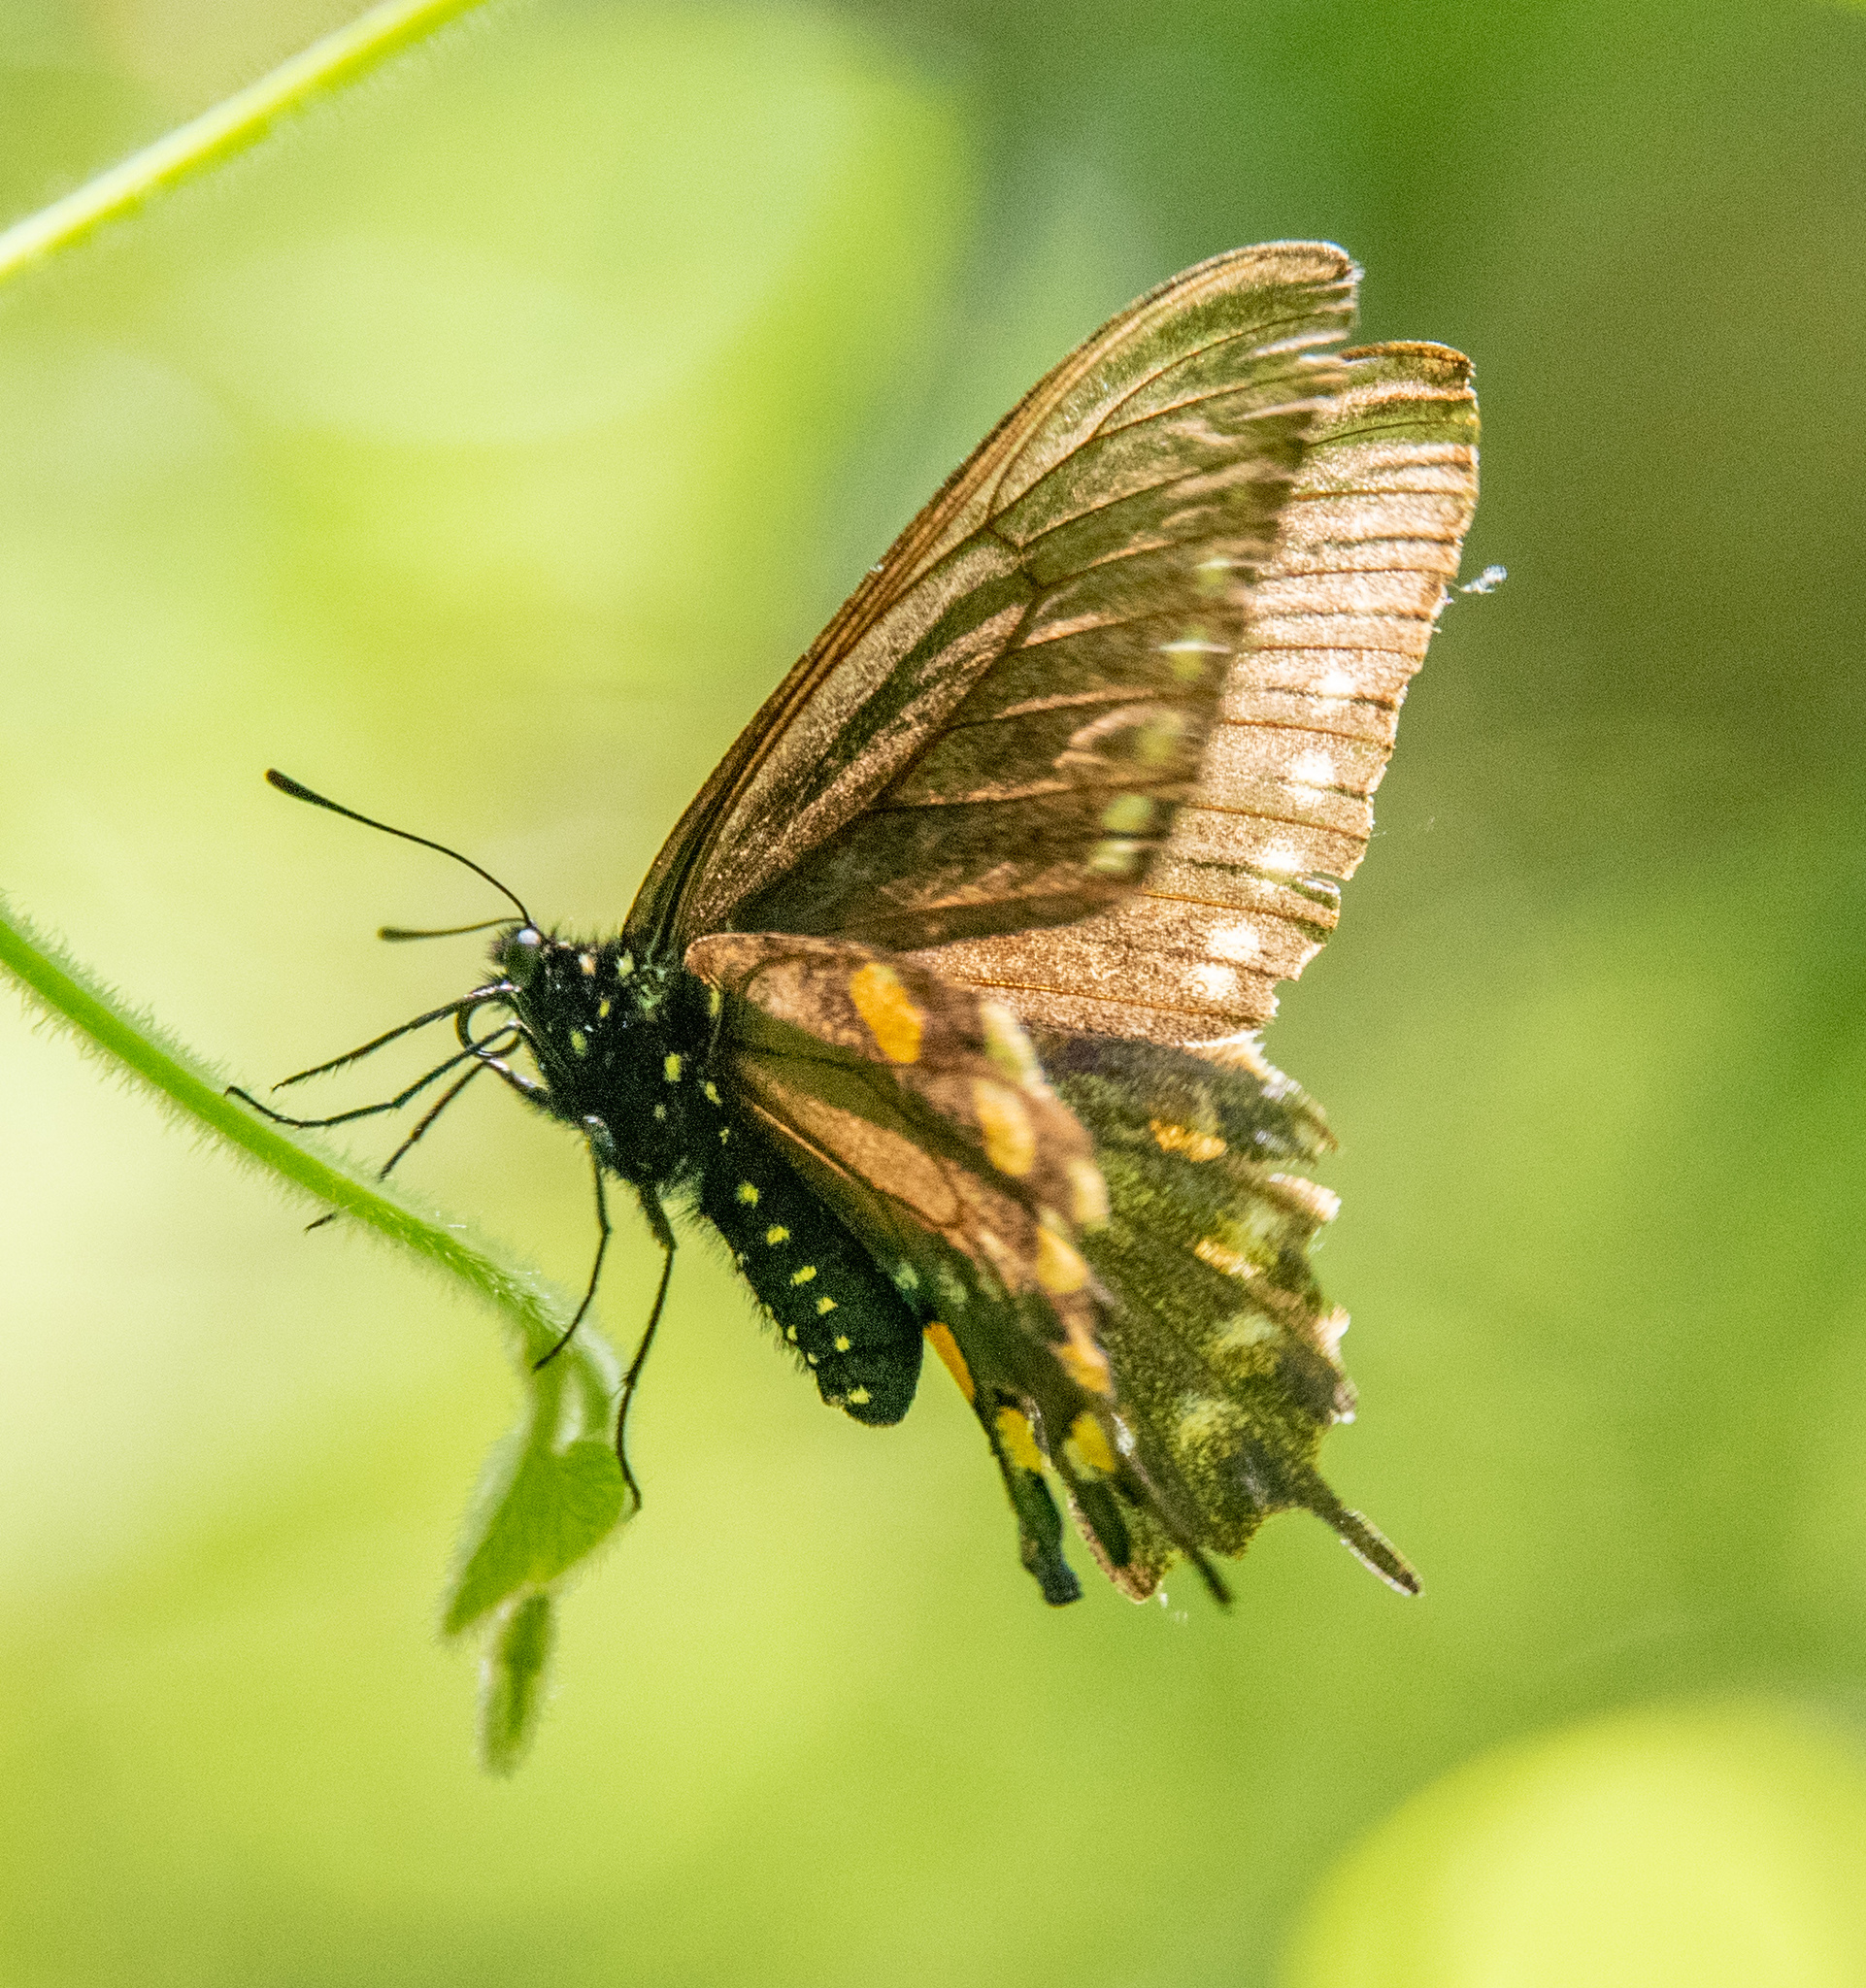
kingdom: Animalia
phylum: Arthropoda
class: Insecta
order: Lepidoptera
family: Papilionidae
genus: Battus
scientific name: Battus philenor
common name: Pipevine swallowtail
